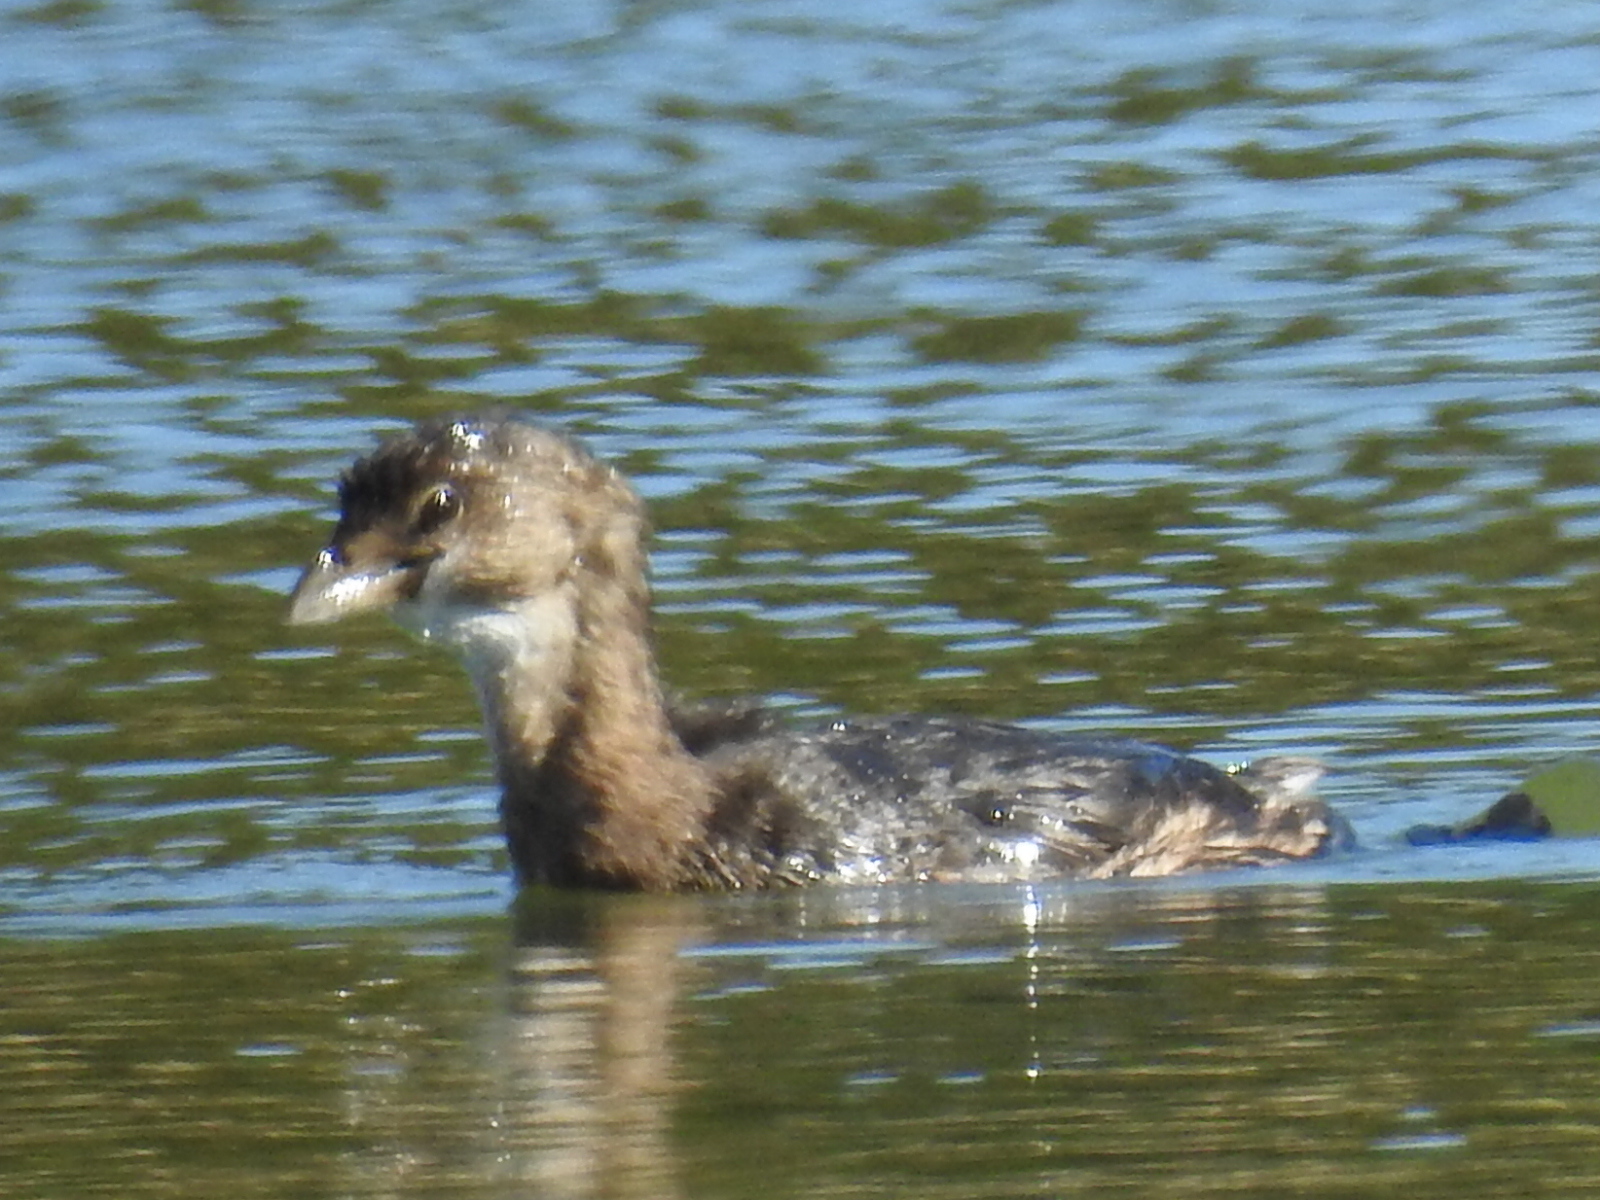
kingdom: Animalia
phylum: Chordata
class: Aves
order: Podicipediformes
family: Podicipedidae
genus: Podilymbus
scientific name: Podilymbus podiceps
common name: Pied-billed grebe
